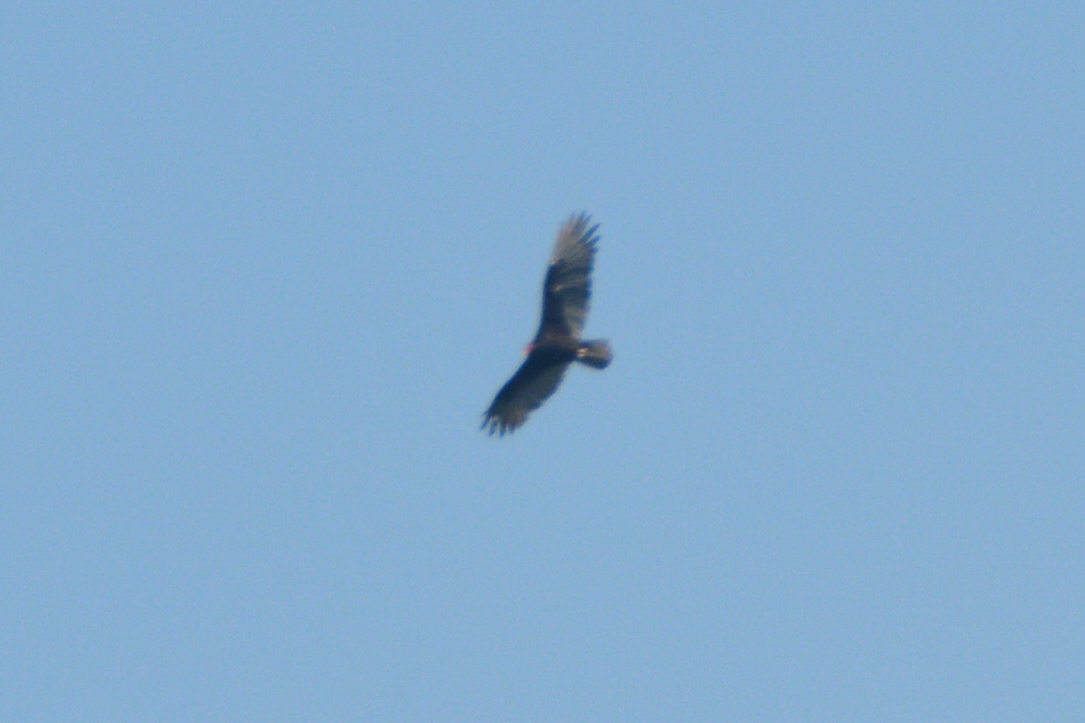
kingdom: Animalia
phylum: Chordata
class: Aves
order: Accipitriformes
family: Cathartidae
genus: Cathartes
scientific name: Cathartes aura
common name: Turkey vulture
